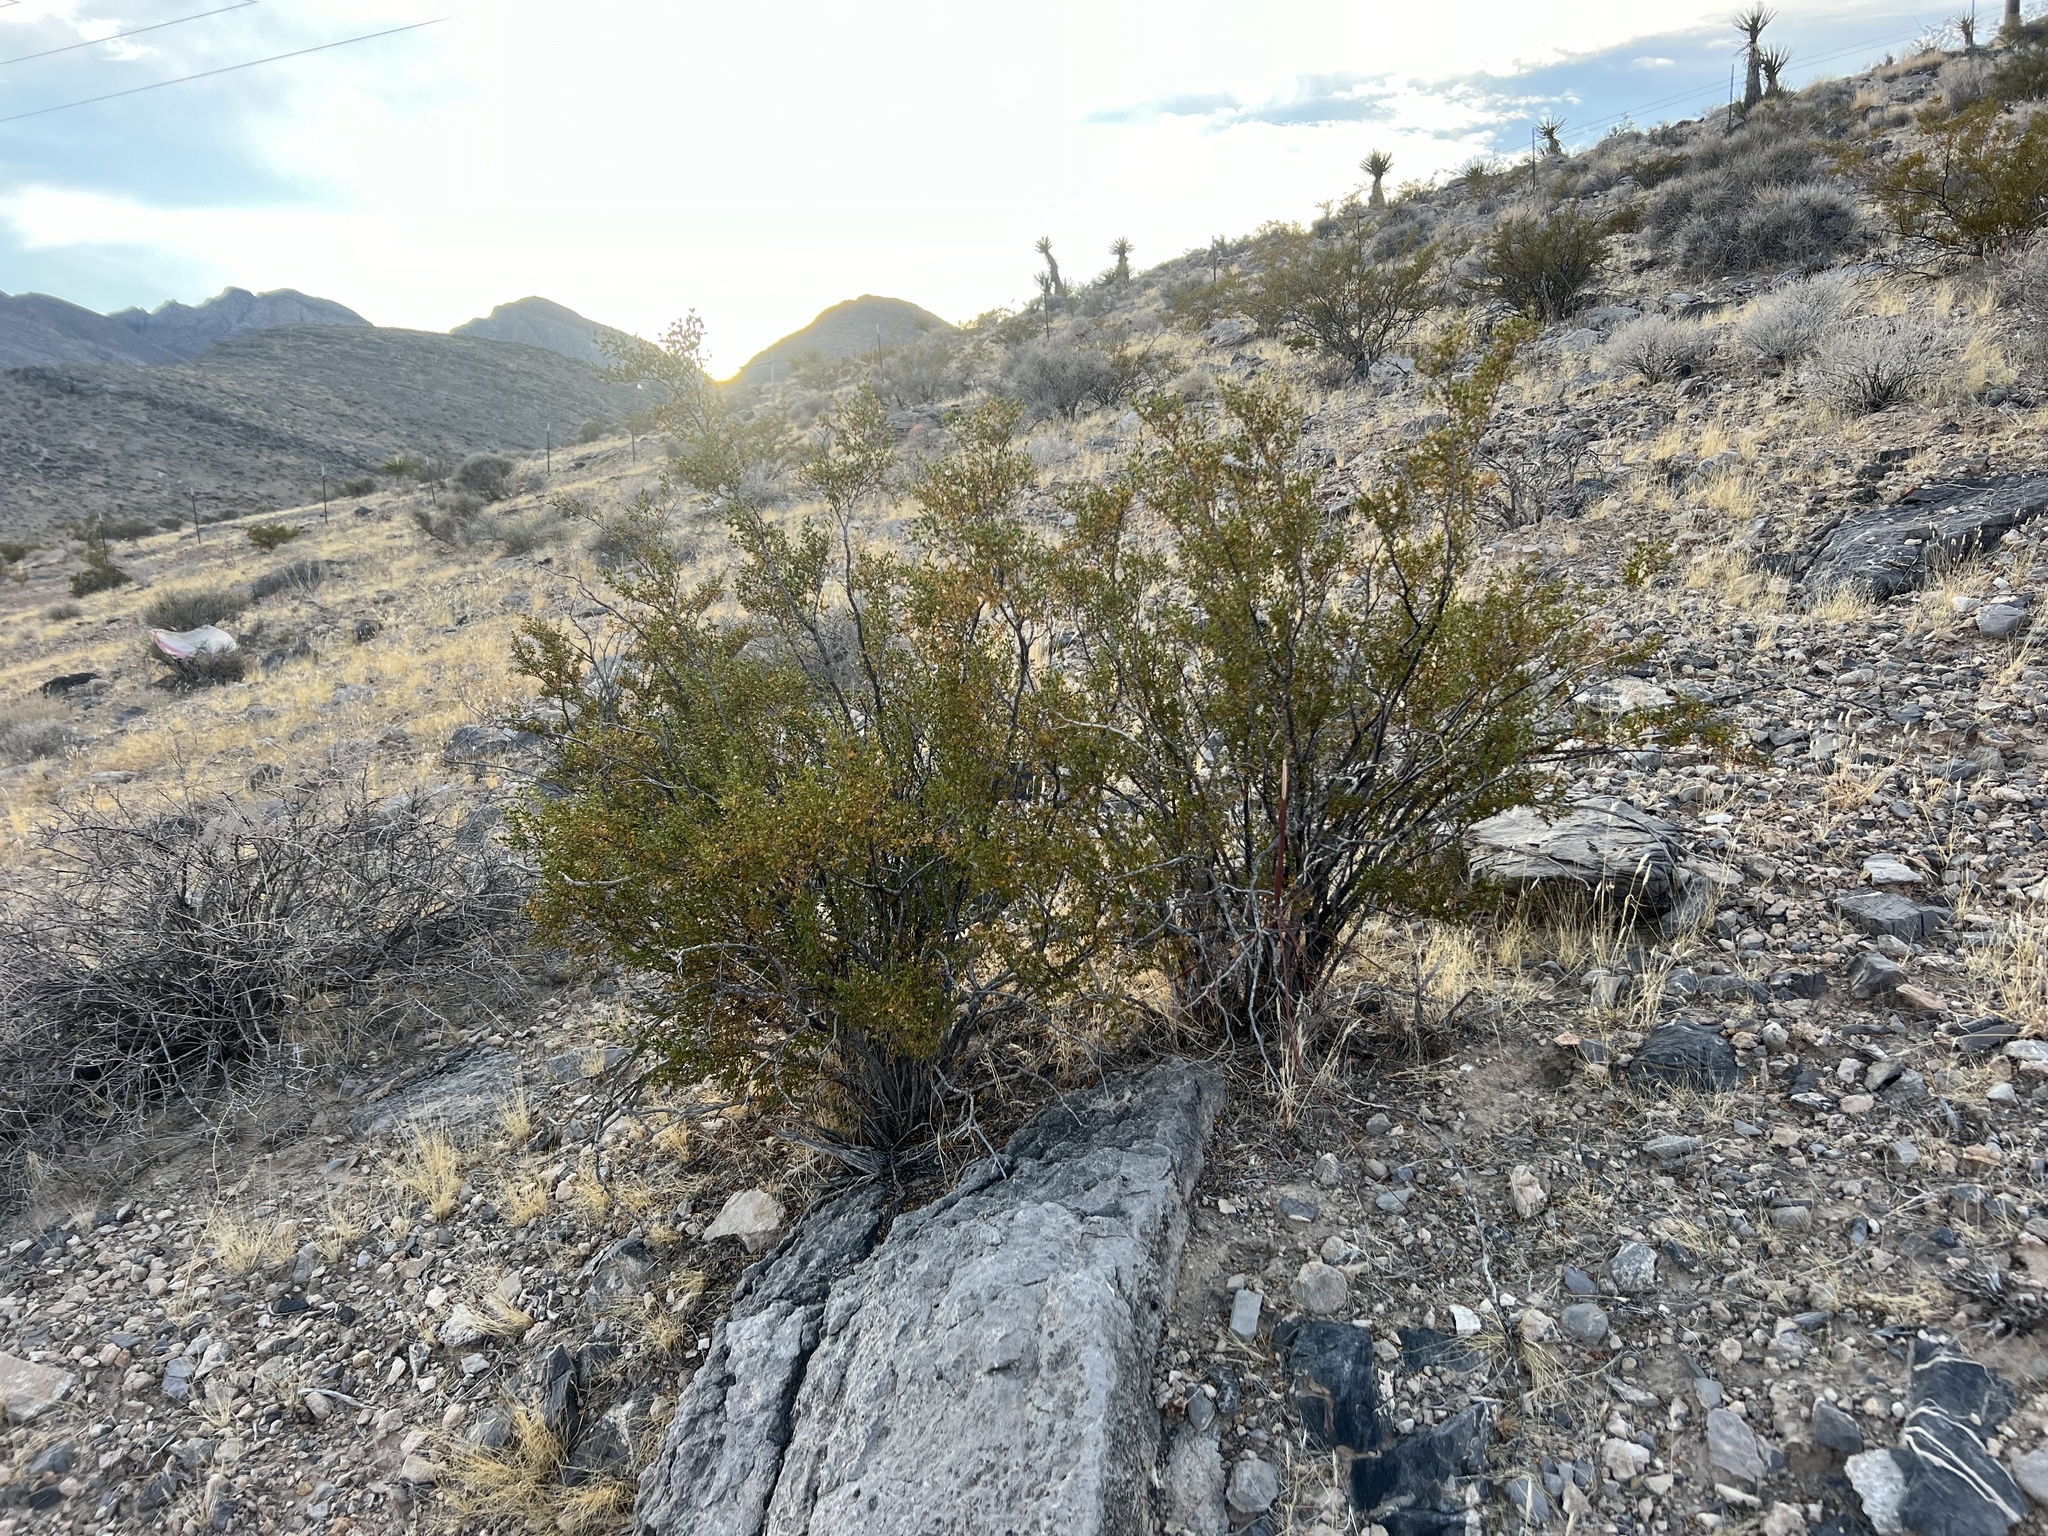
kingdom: Plantae
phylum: Tracheophyta
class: Magnoliopsida
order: Zygophyllales
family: Zygophyllaceae
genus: Larrea
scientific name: Larrea tridentata
